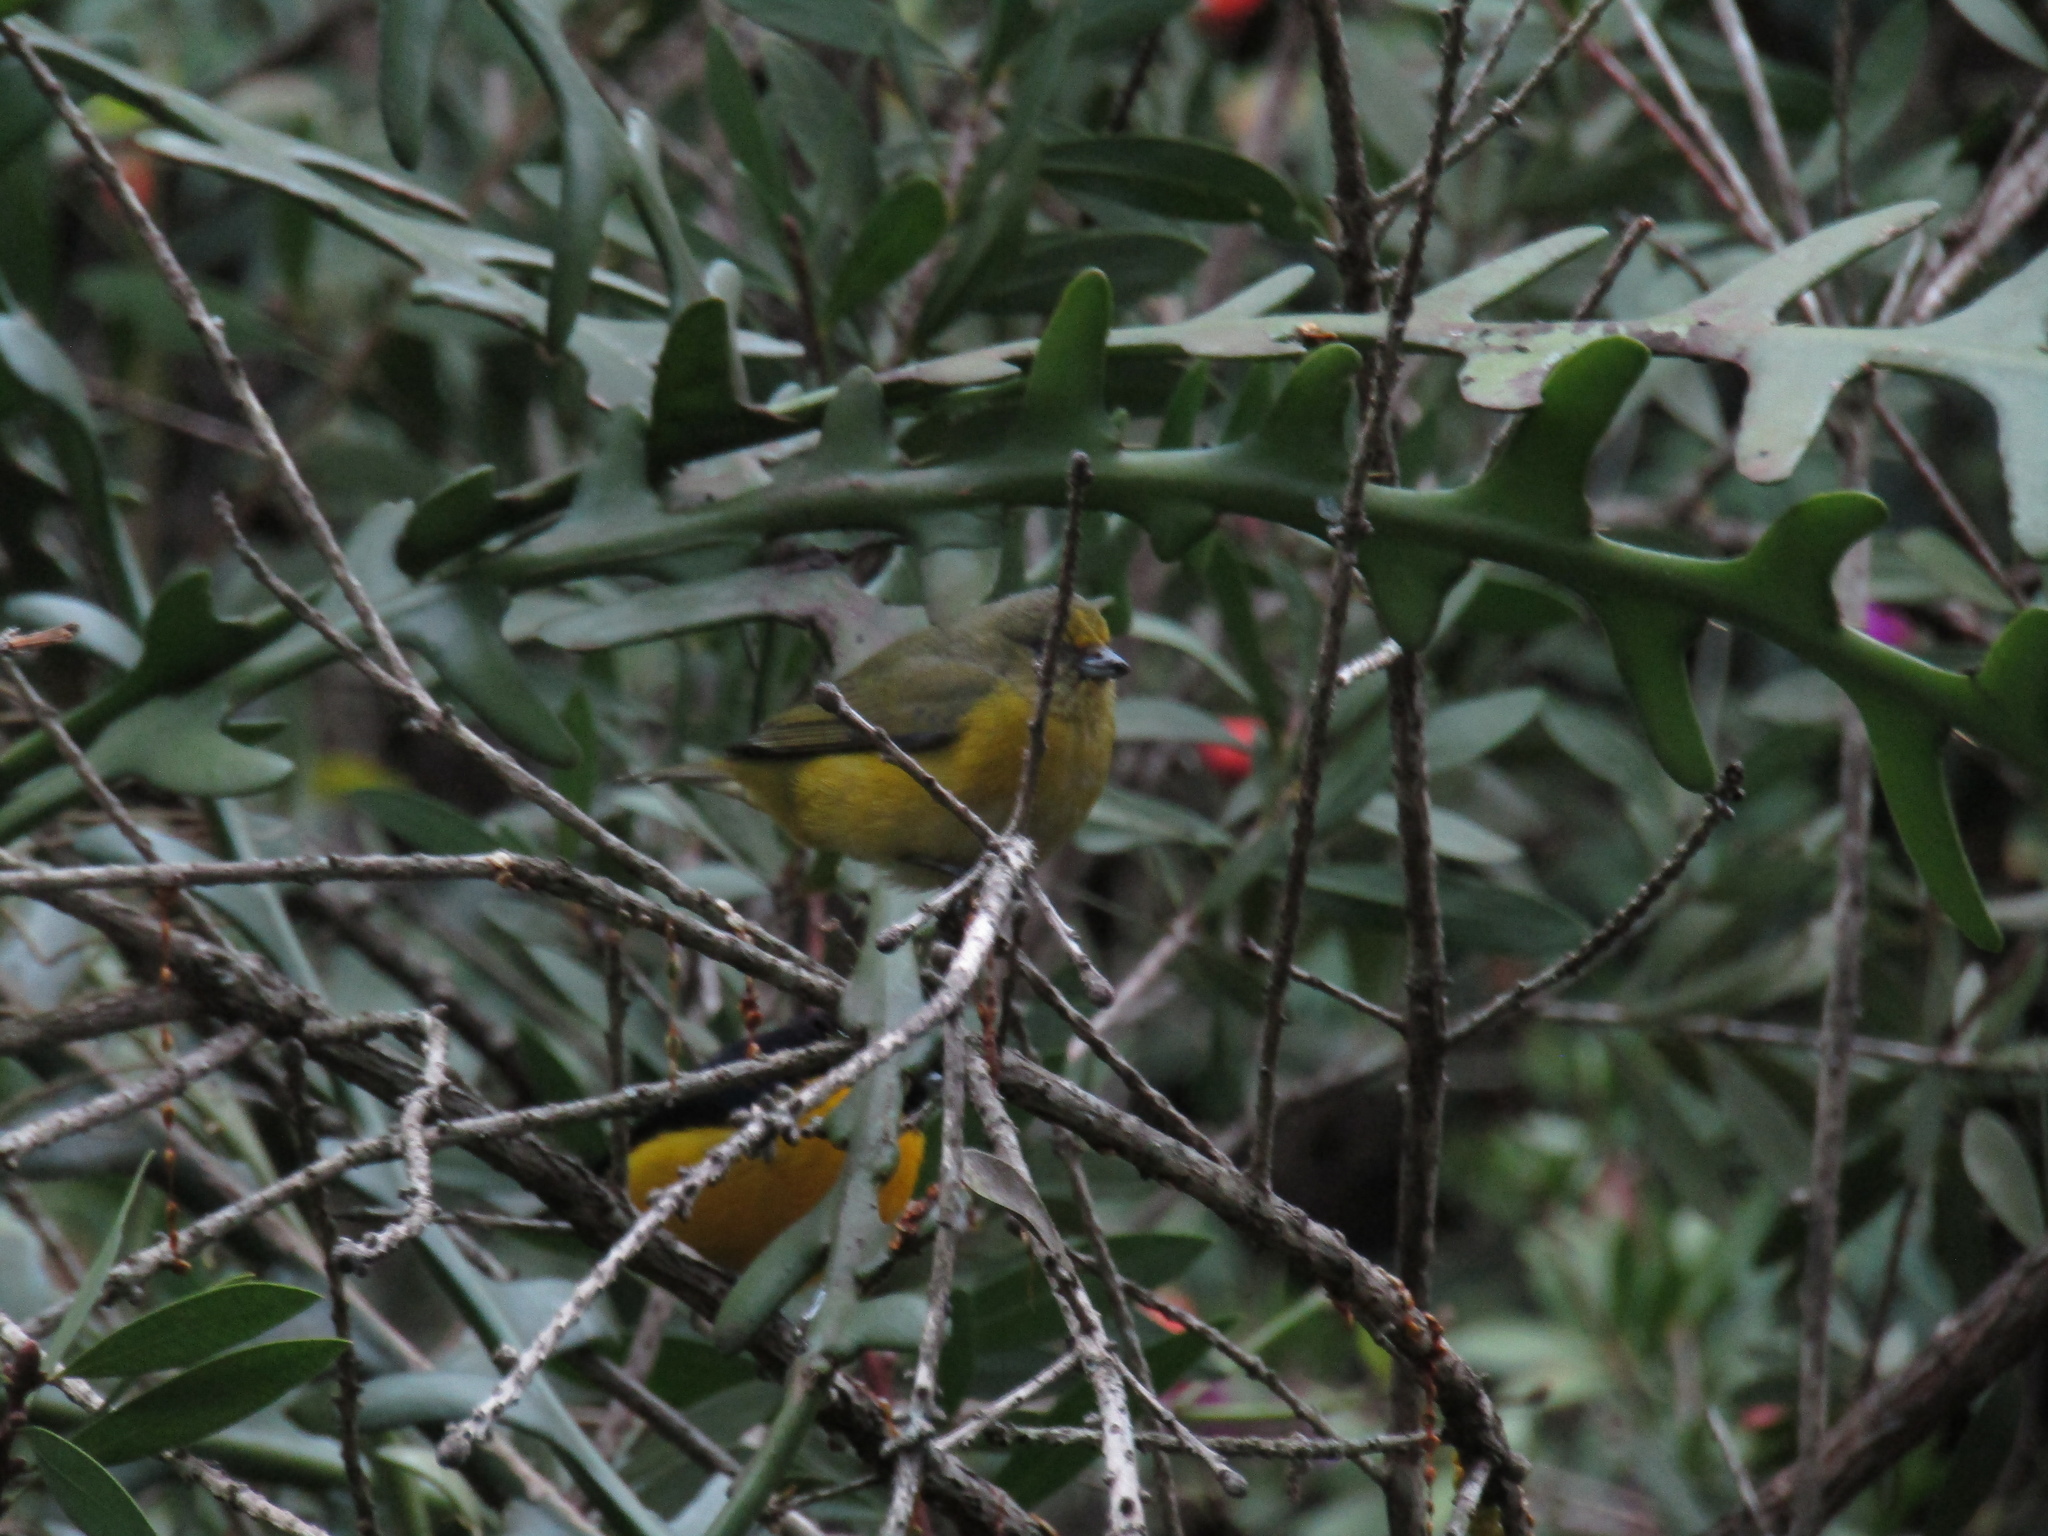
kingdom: Animalia
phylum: Chordata
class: Aves
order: Passeriformes
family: Fringillidae
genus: Euphonia
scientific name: Euphonia violacea
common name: Violaceous euphonia
